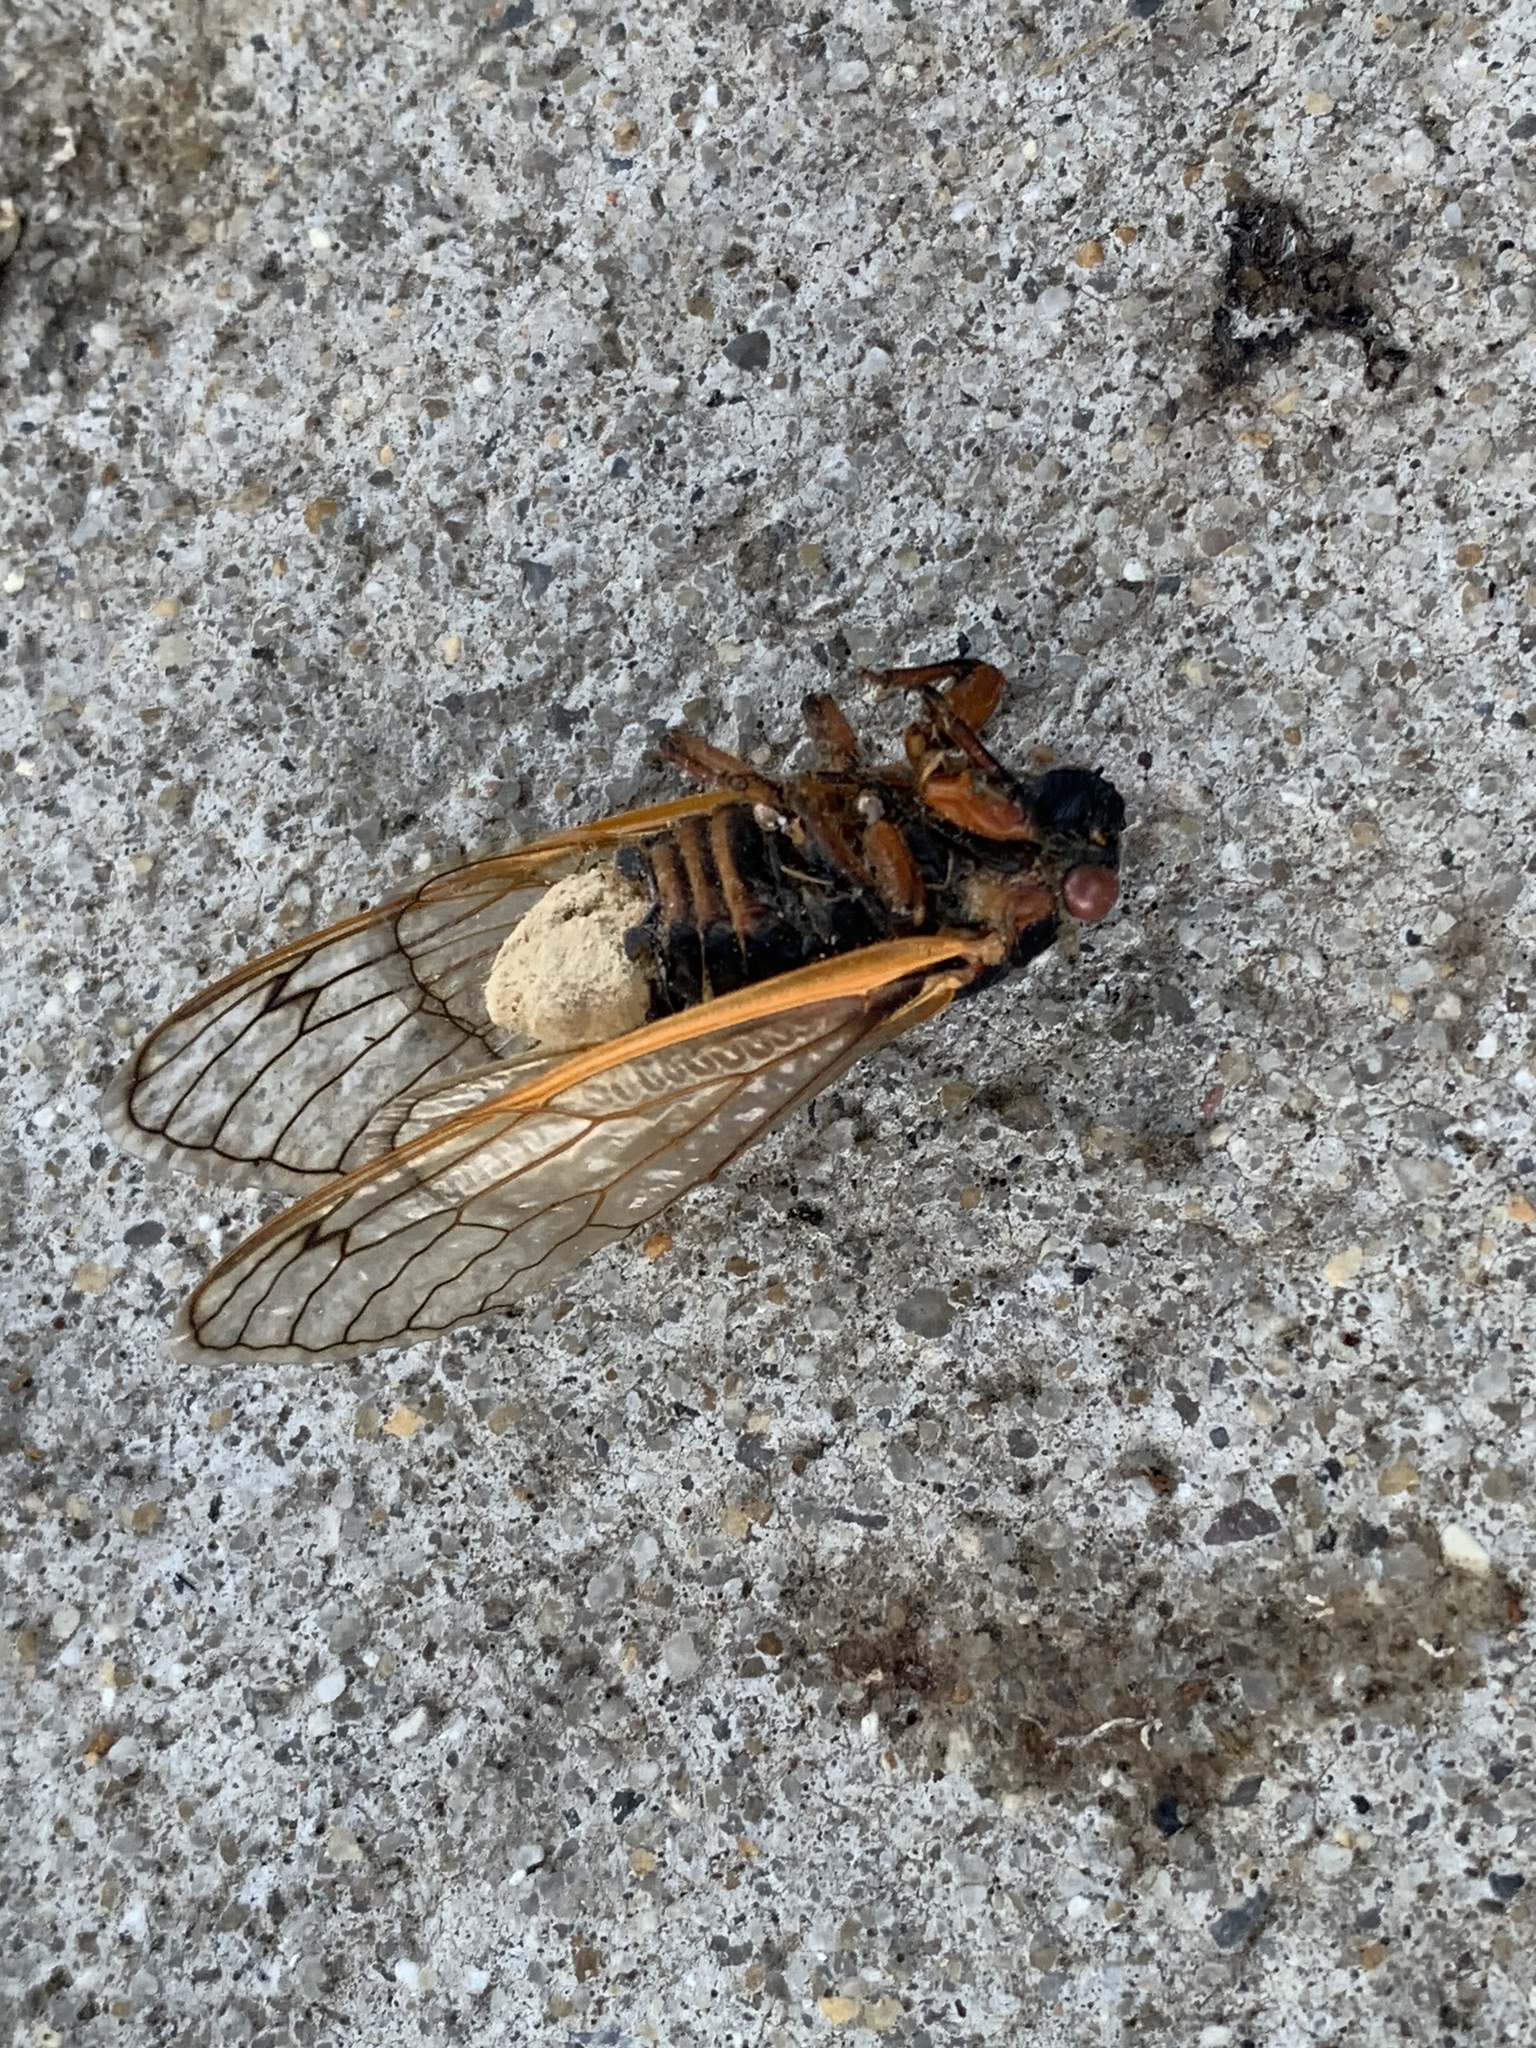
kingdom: Fungi
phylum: Entomophthoromycota
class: Entomophthoromycetes
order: Entomophthorales
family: Entomophthoraceae
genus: Massospora
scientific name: Massospora cicadina
